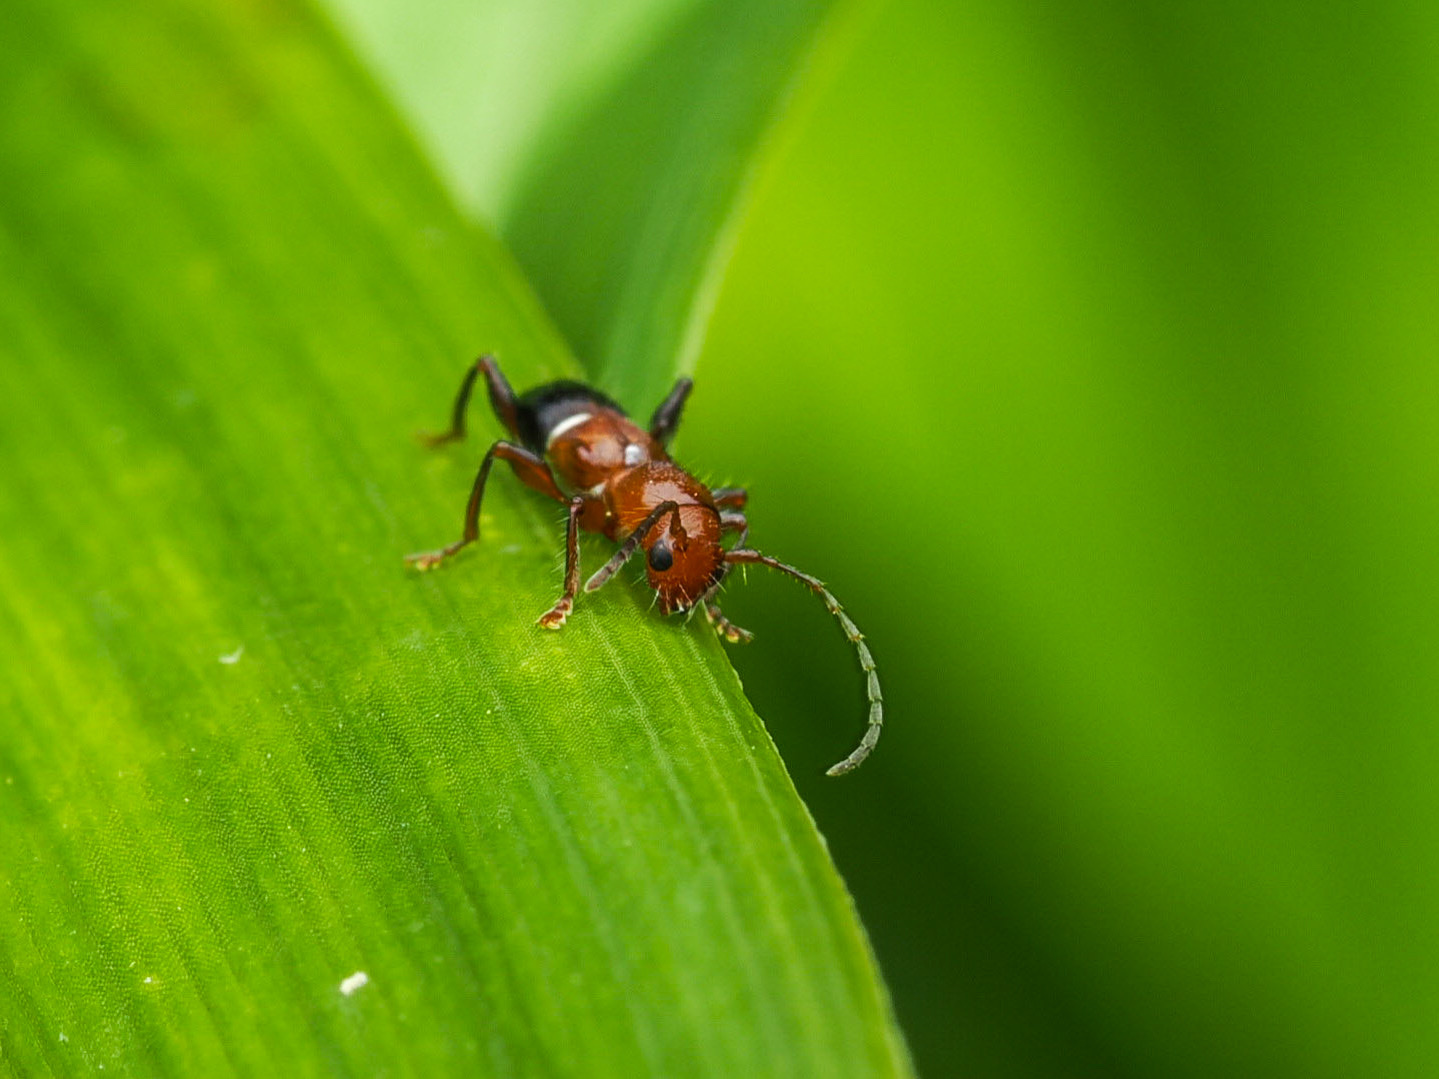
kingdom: Animalia
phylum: Arthropoda
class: Insecta
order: Coleoptera
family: Cerambycidae
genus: Euderces
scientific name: Euderces reichei
